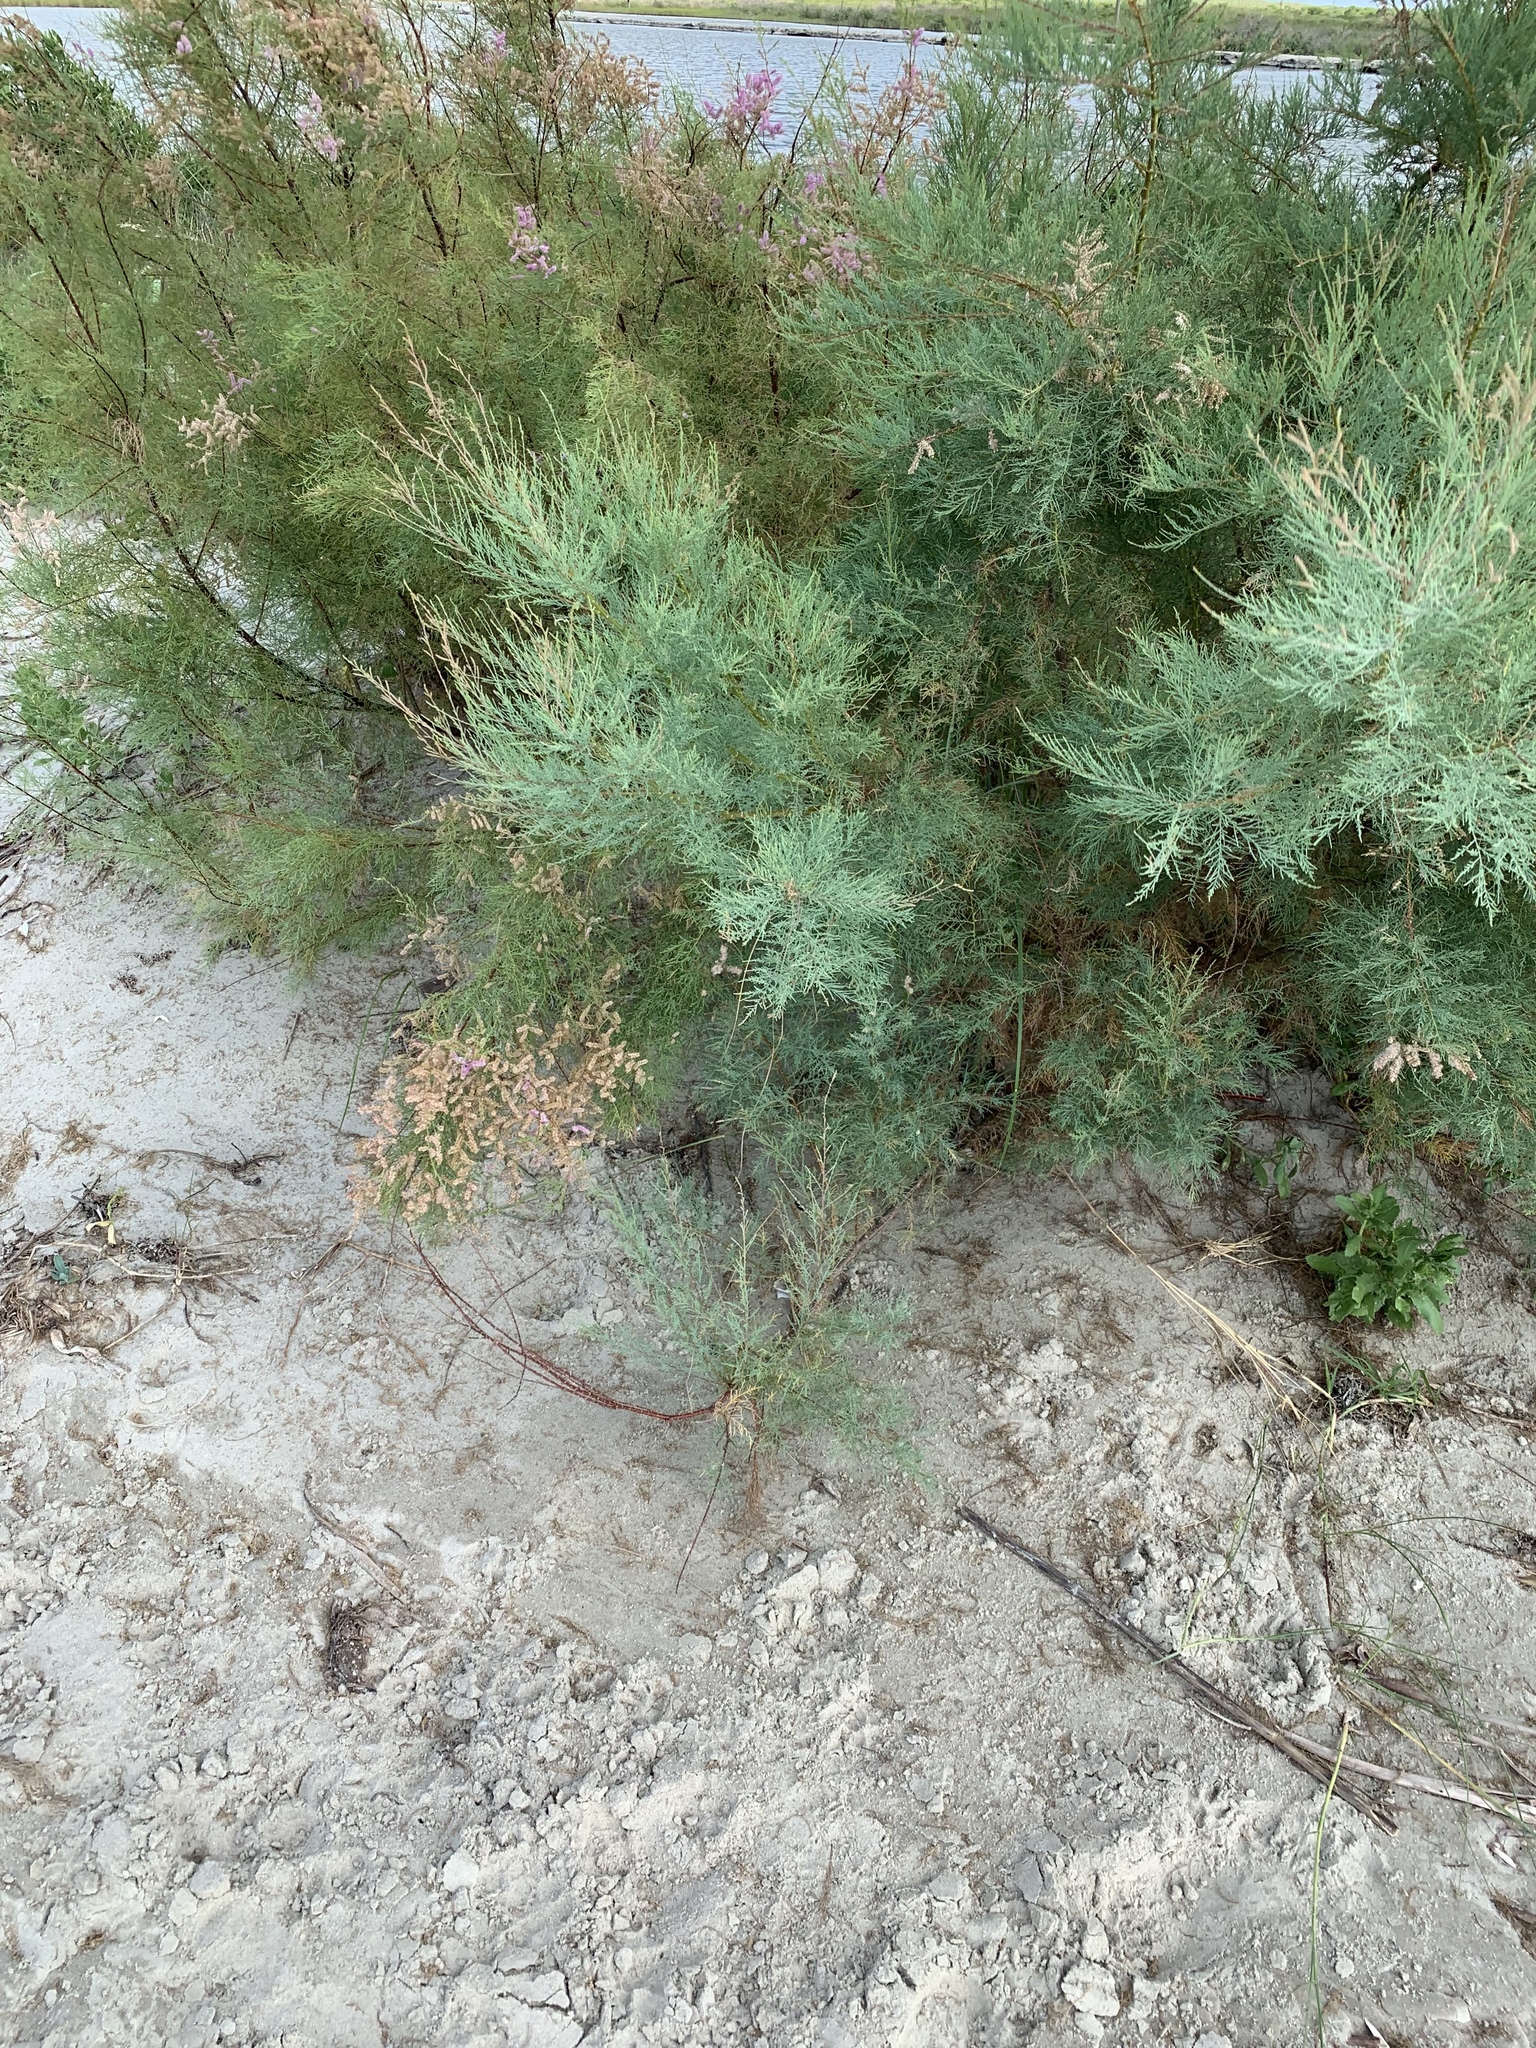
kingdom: Plantae
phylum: Tracheophyta
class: Magnoliopsida
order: Caryophyllales
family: Tamaricaceae
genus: Tamarix
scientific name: Tamarix
